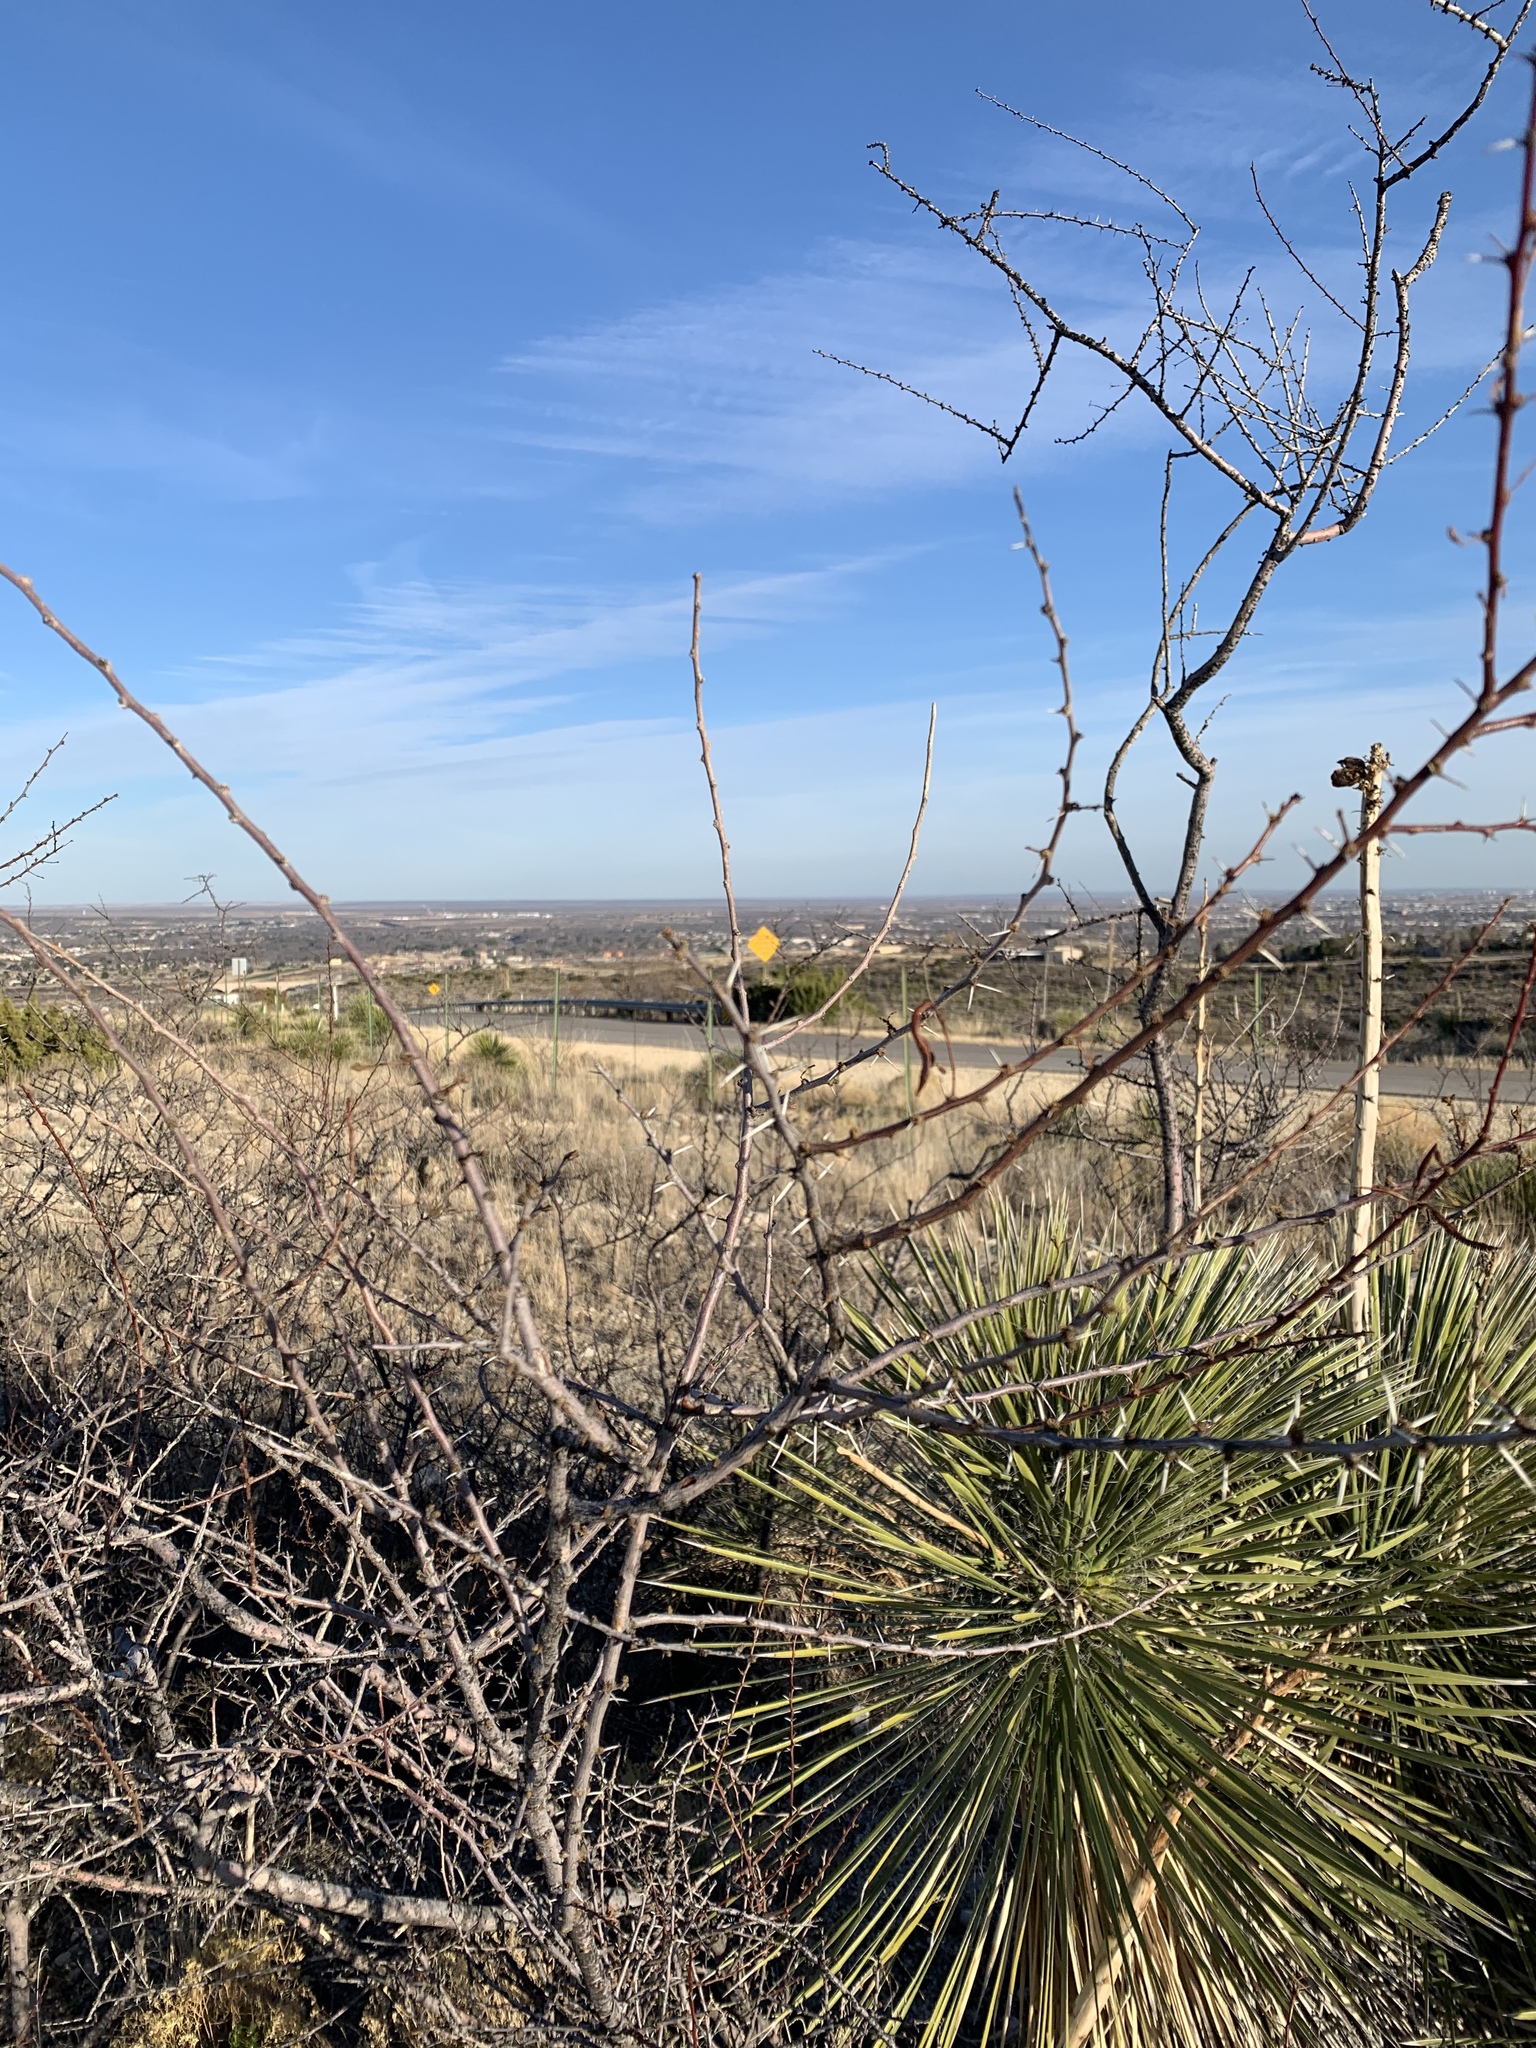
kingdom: Plantae
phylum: Tracheophyta
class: Magnoliopsida
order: Fabales
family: Fabaceae
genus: Vachellia
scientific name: Vachellia constricta
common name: Mescat acacia
